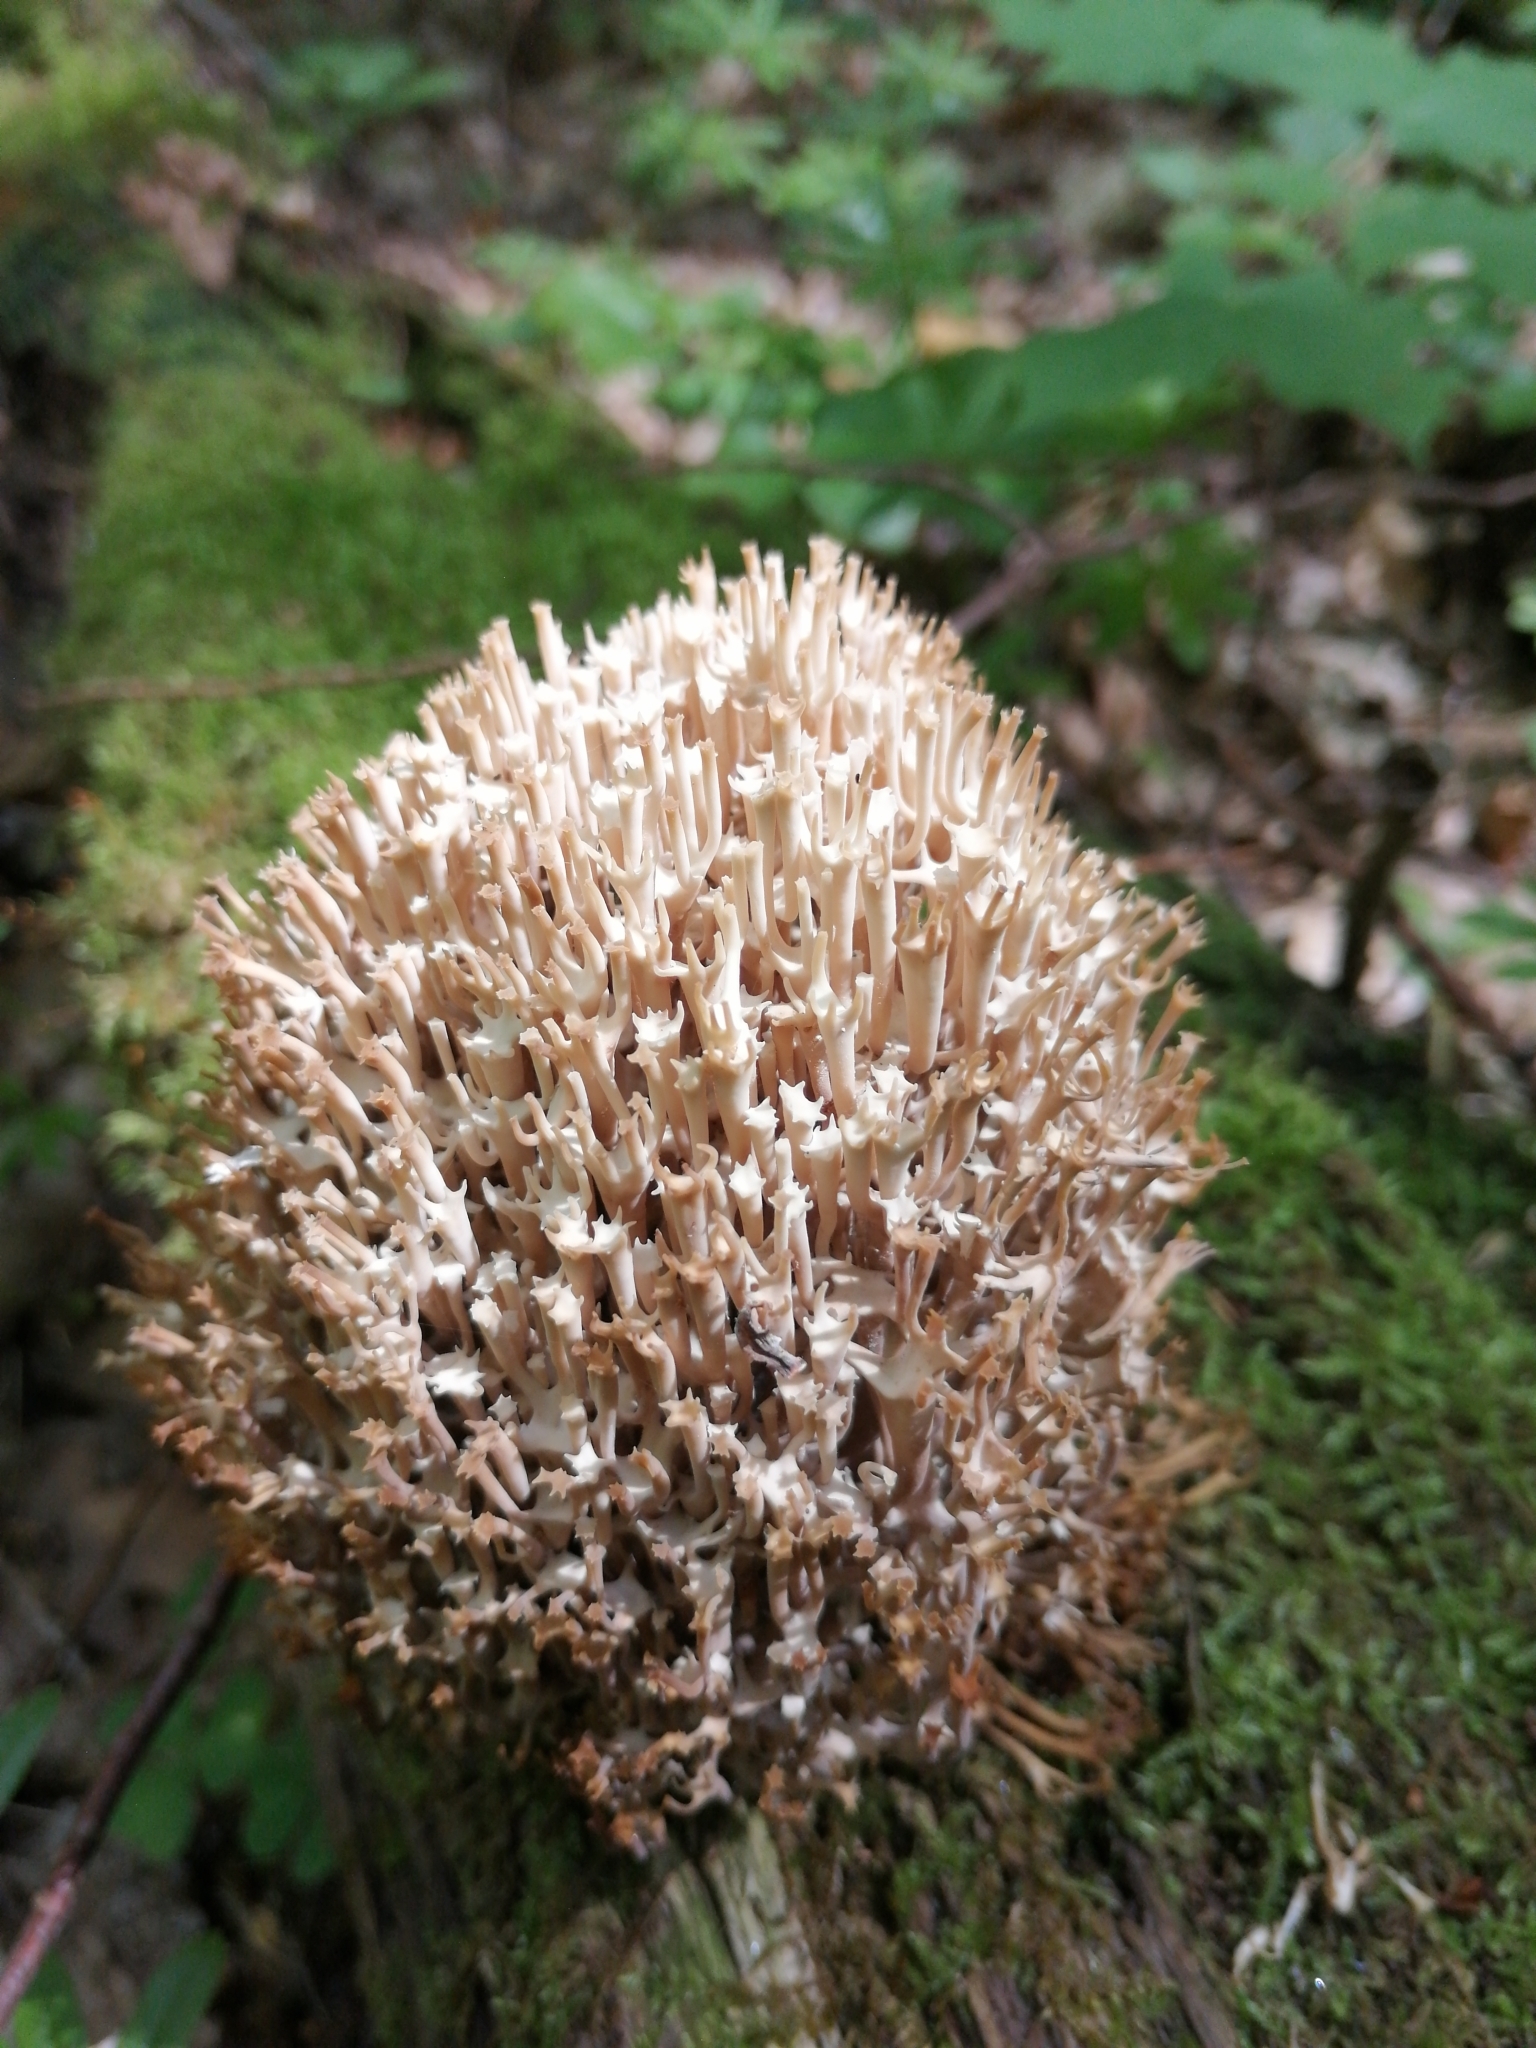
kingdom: Fungi
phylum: Basidiomycota
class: Agaricomycetes
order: Russulales
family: Auriscalpiaceae
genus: Artomyces
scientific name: Artomyces pyxidatus
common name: Crown-tipped coral fungus
